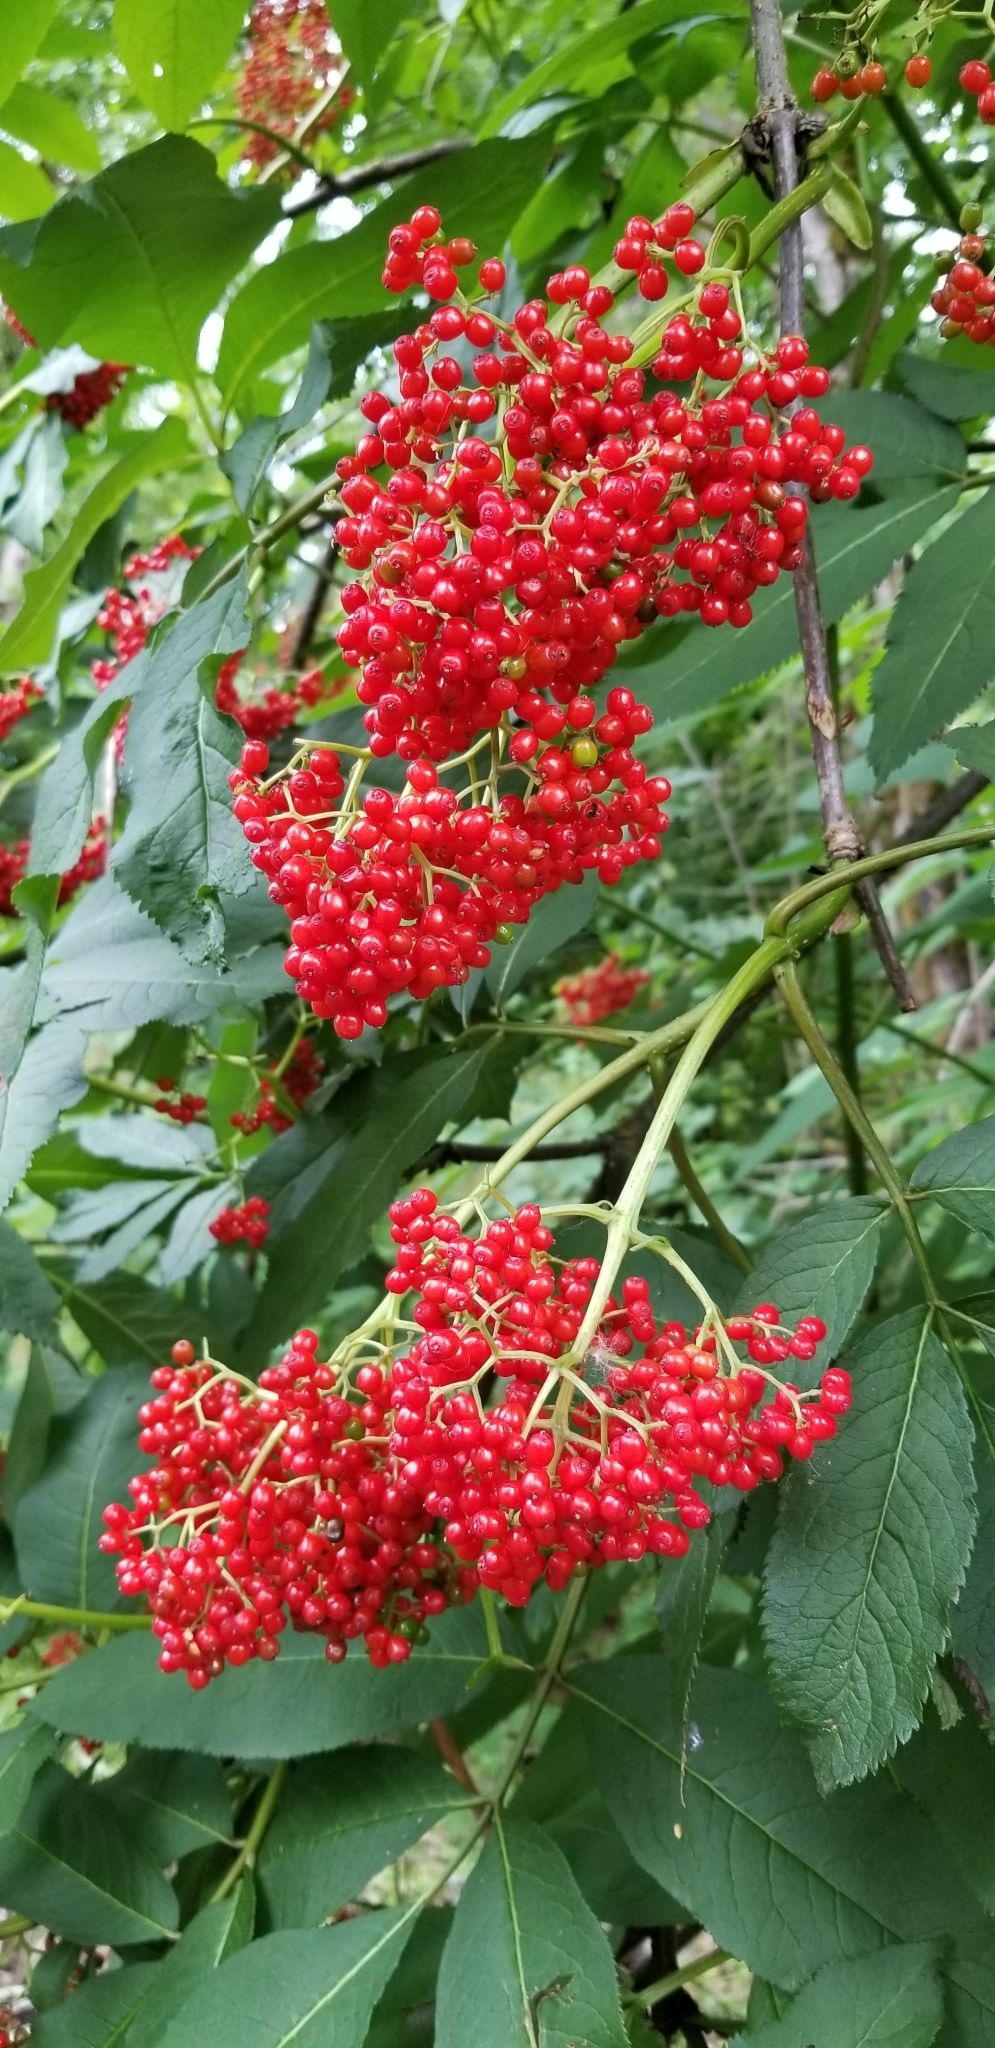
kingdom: Plantae
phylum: Tracheophyta
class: Magnoliopsida
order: Dipsacales
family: Viburnaceae
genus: Sambucus
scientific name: Sambucus racemosa
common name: Red-berried elder
